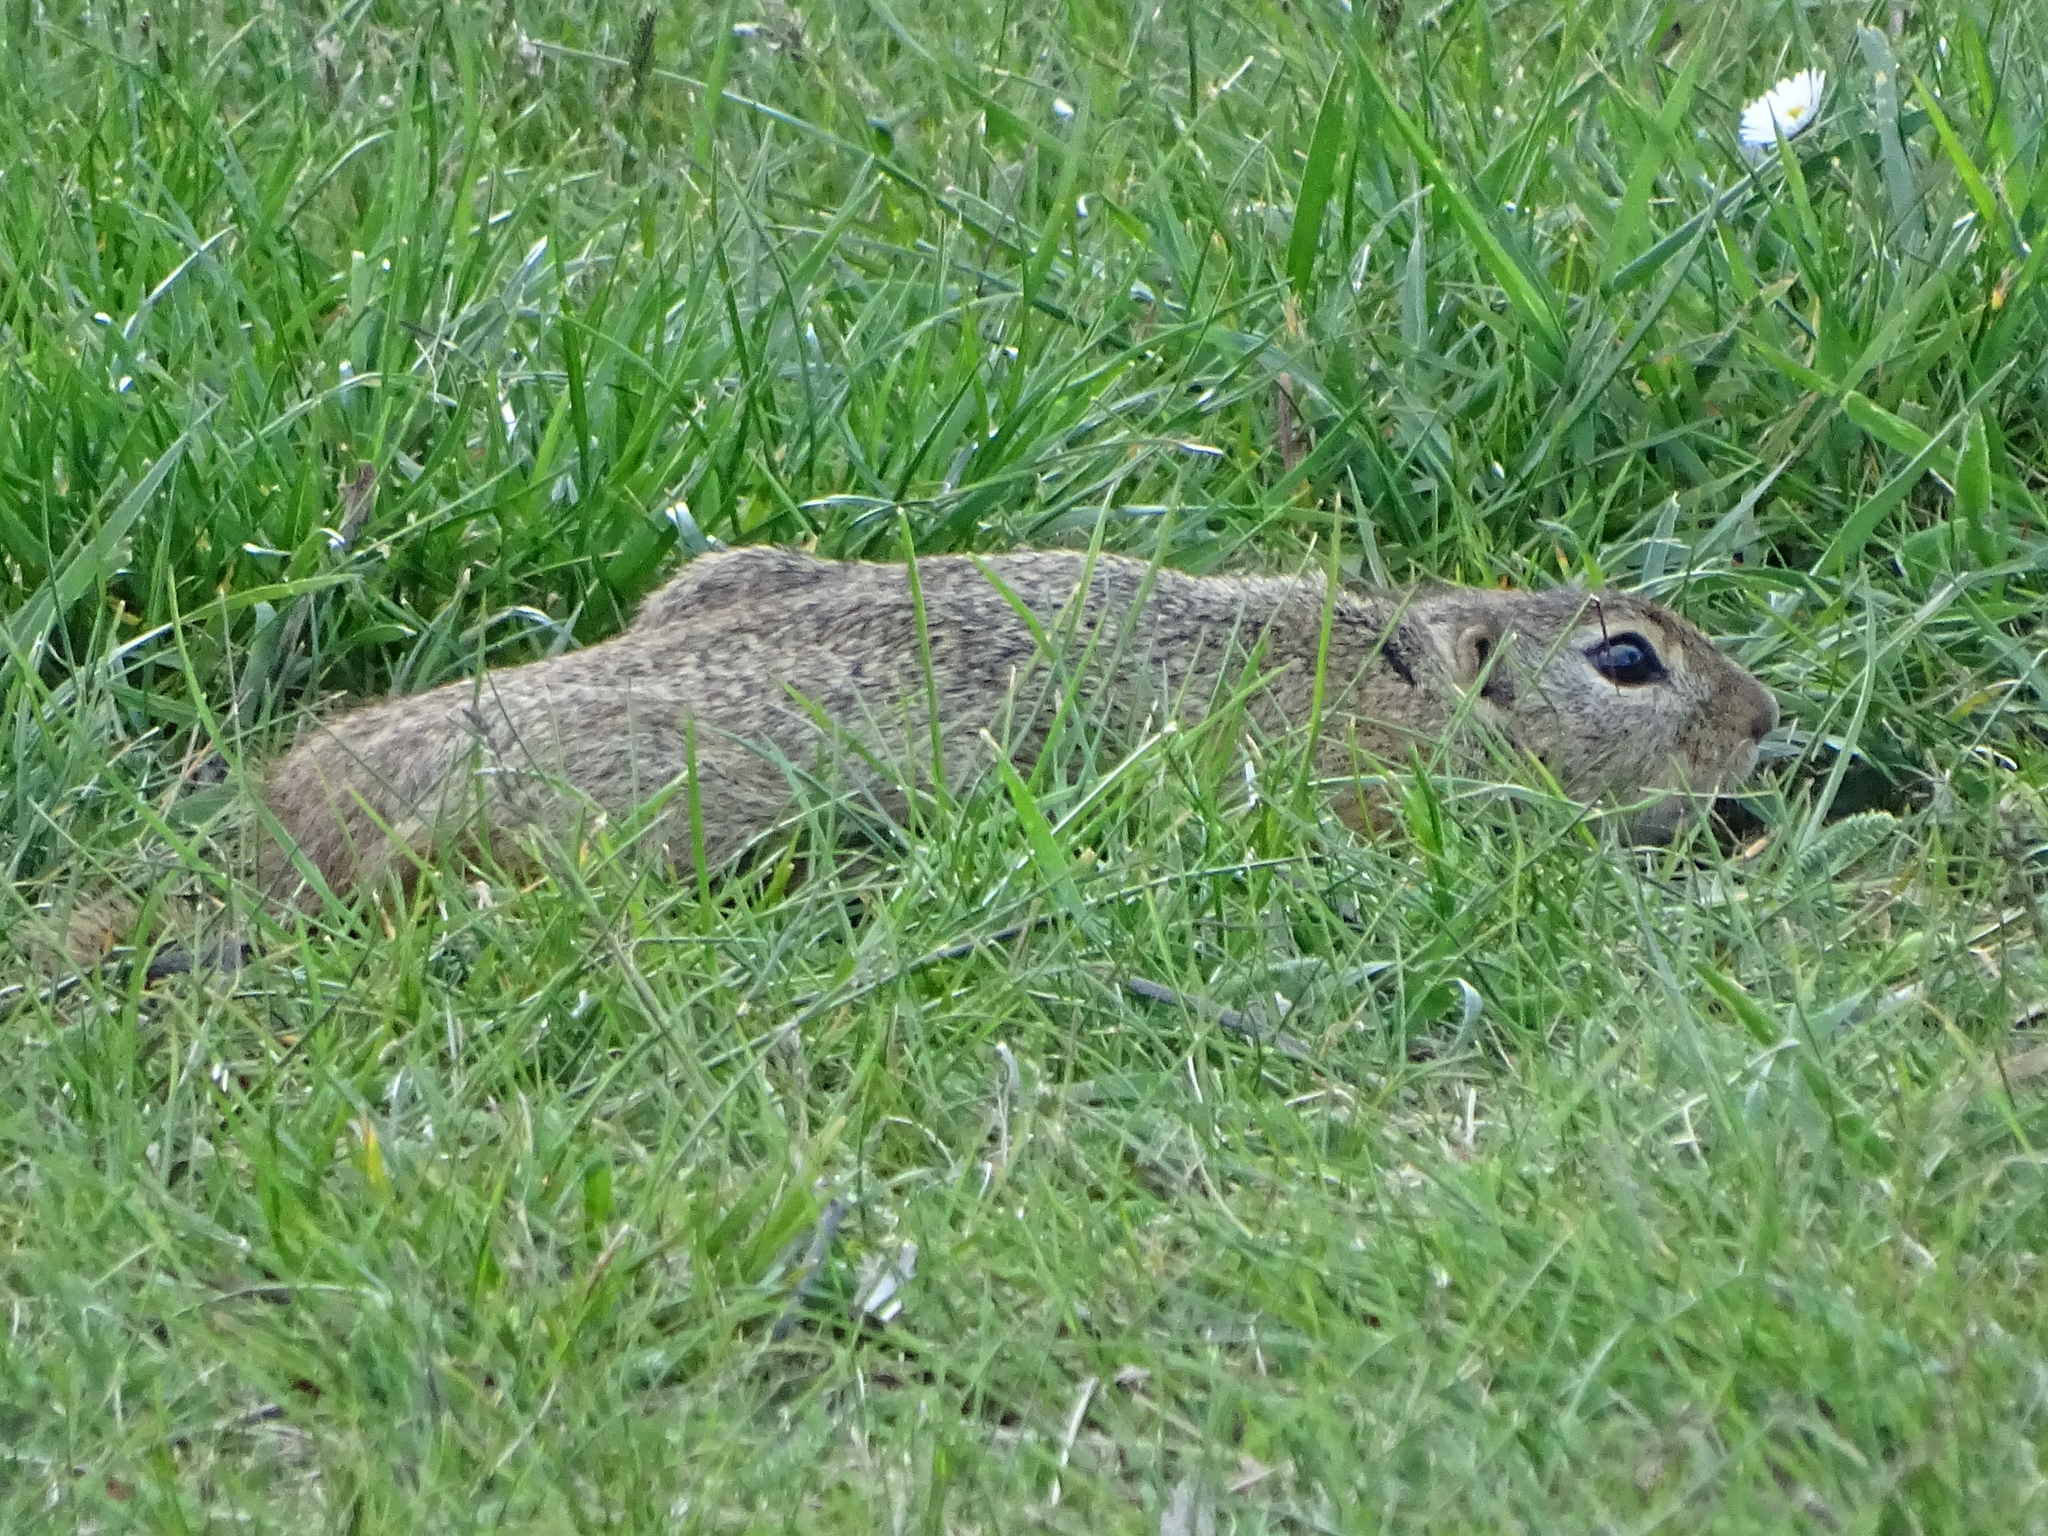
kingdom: Animalia
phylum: Chordata
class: Mammalia
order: Rodentia
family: Sciuridae
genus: Spermophilus
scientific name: Spermophilus citellus
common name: European ground squirrel
